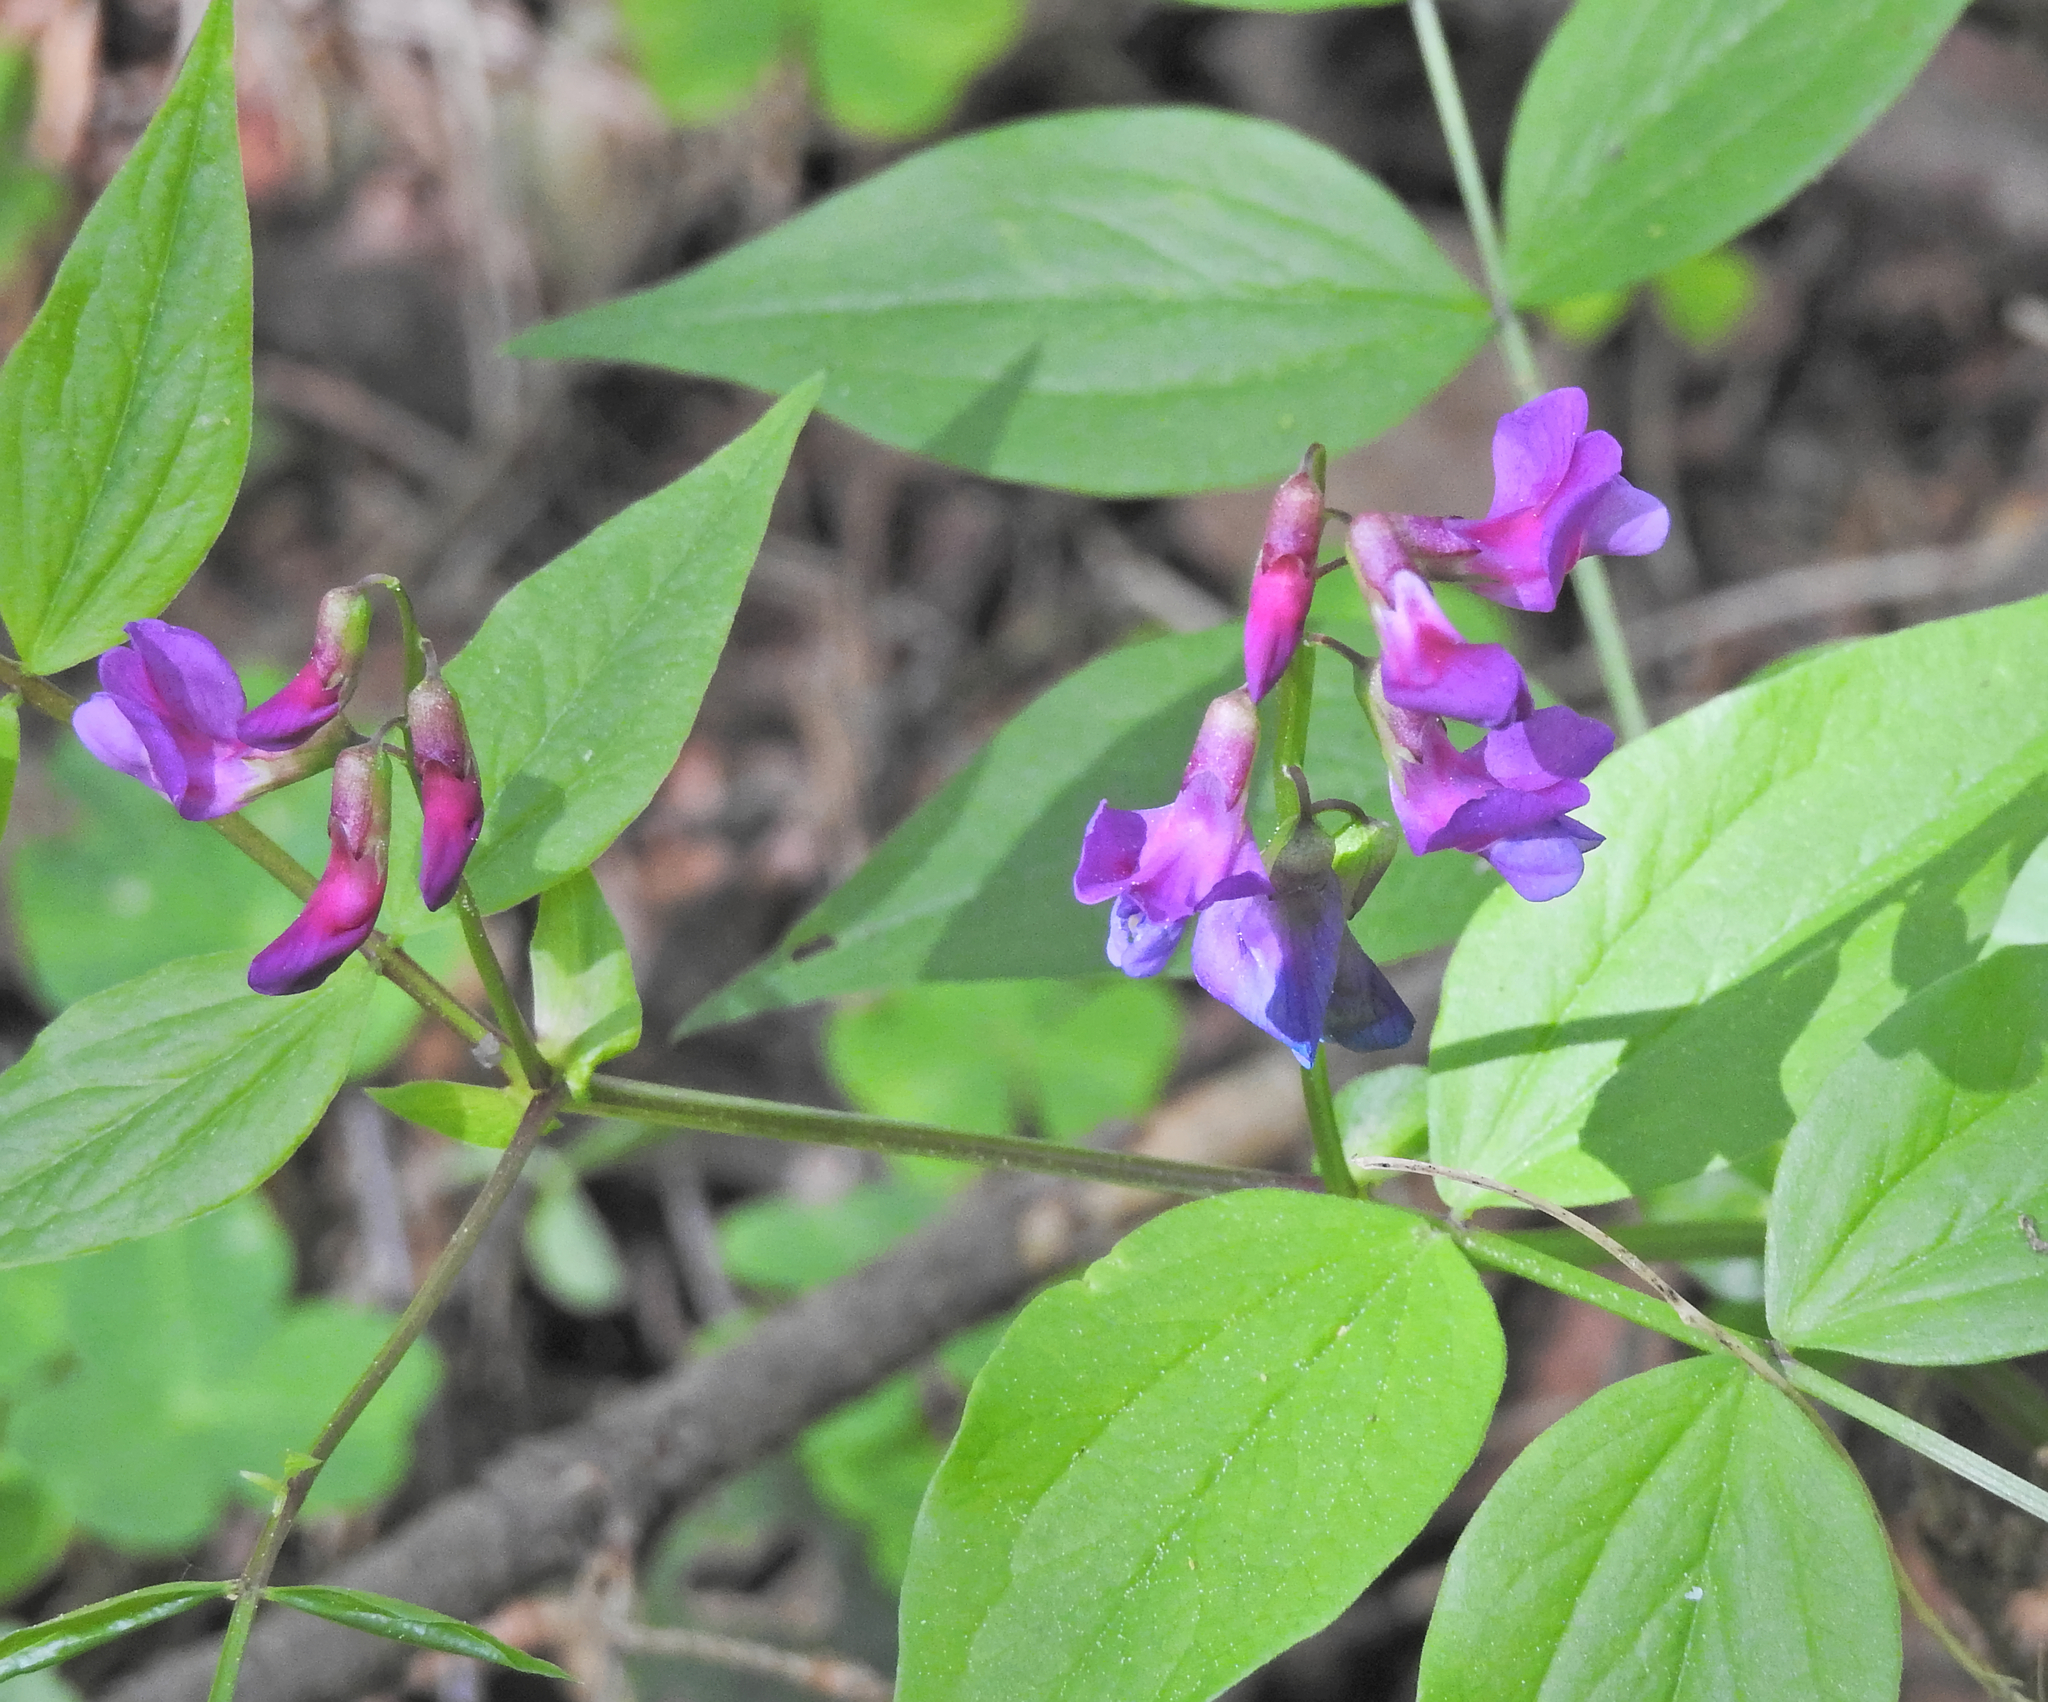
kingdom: Plantae
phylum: Tracheophyta
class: Magnoliopsida
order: Fabales
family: Fabaceae
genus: Lathyrus
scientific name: Lathyrus vernus
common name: Spring pea
